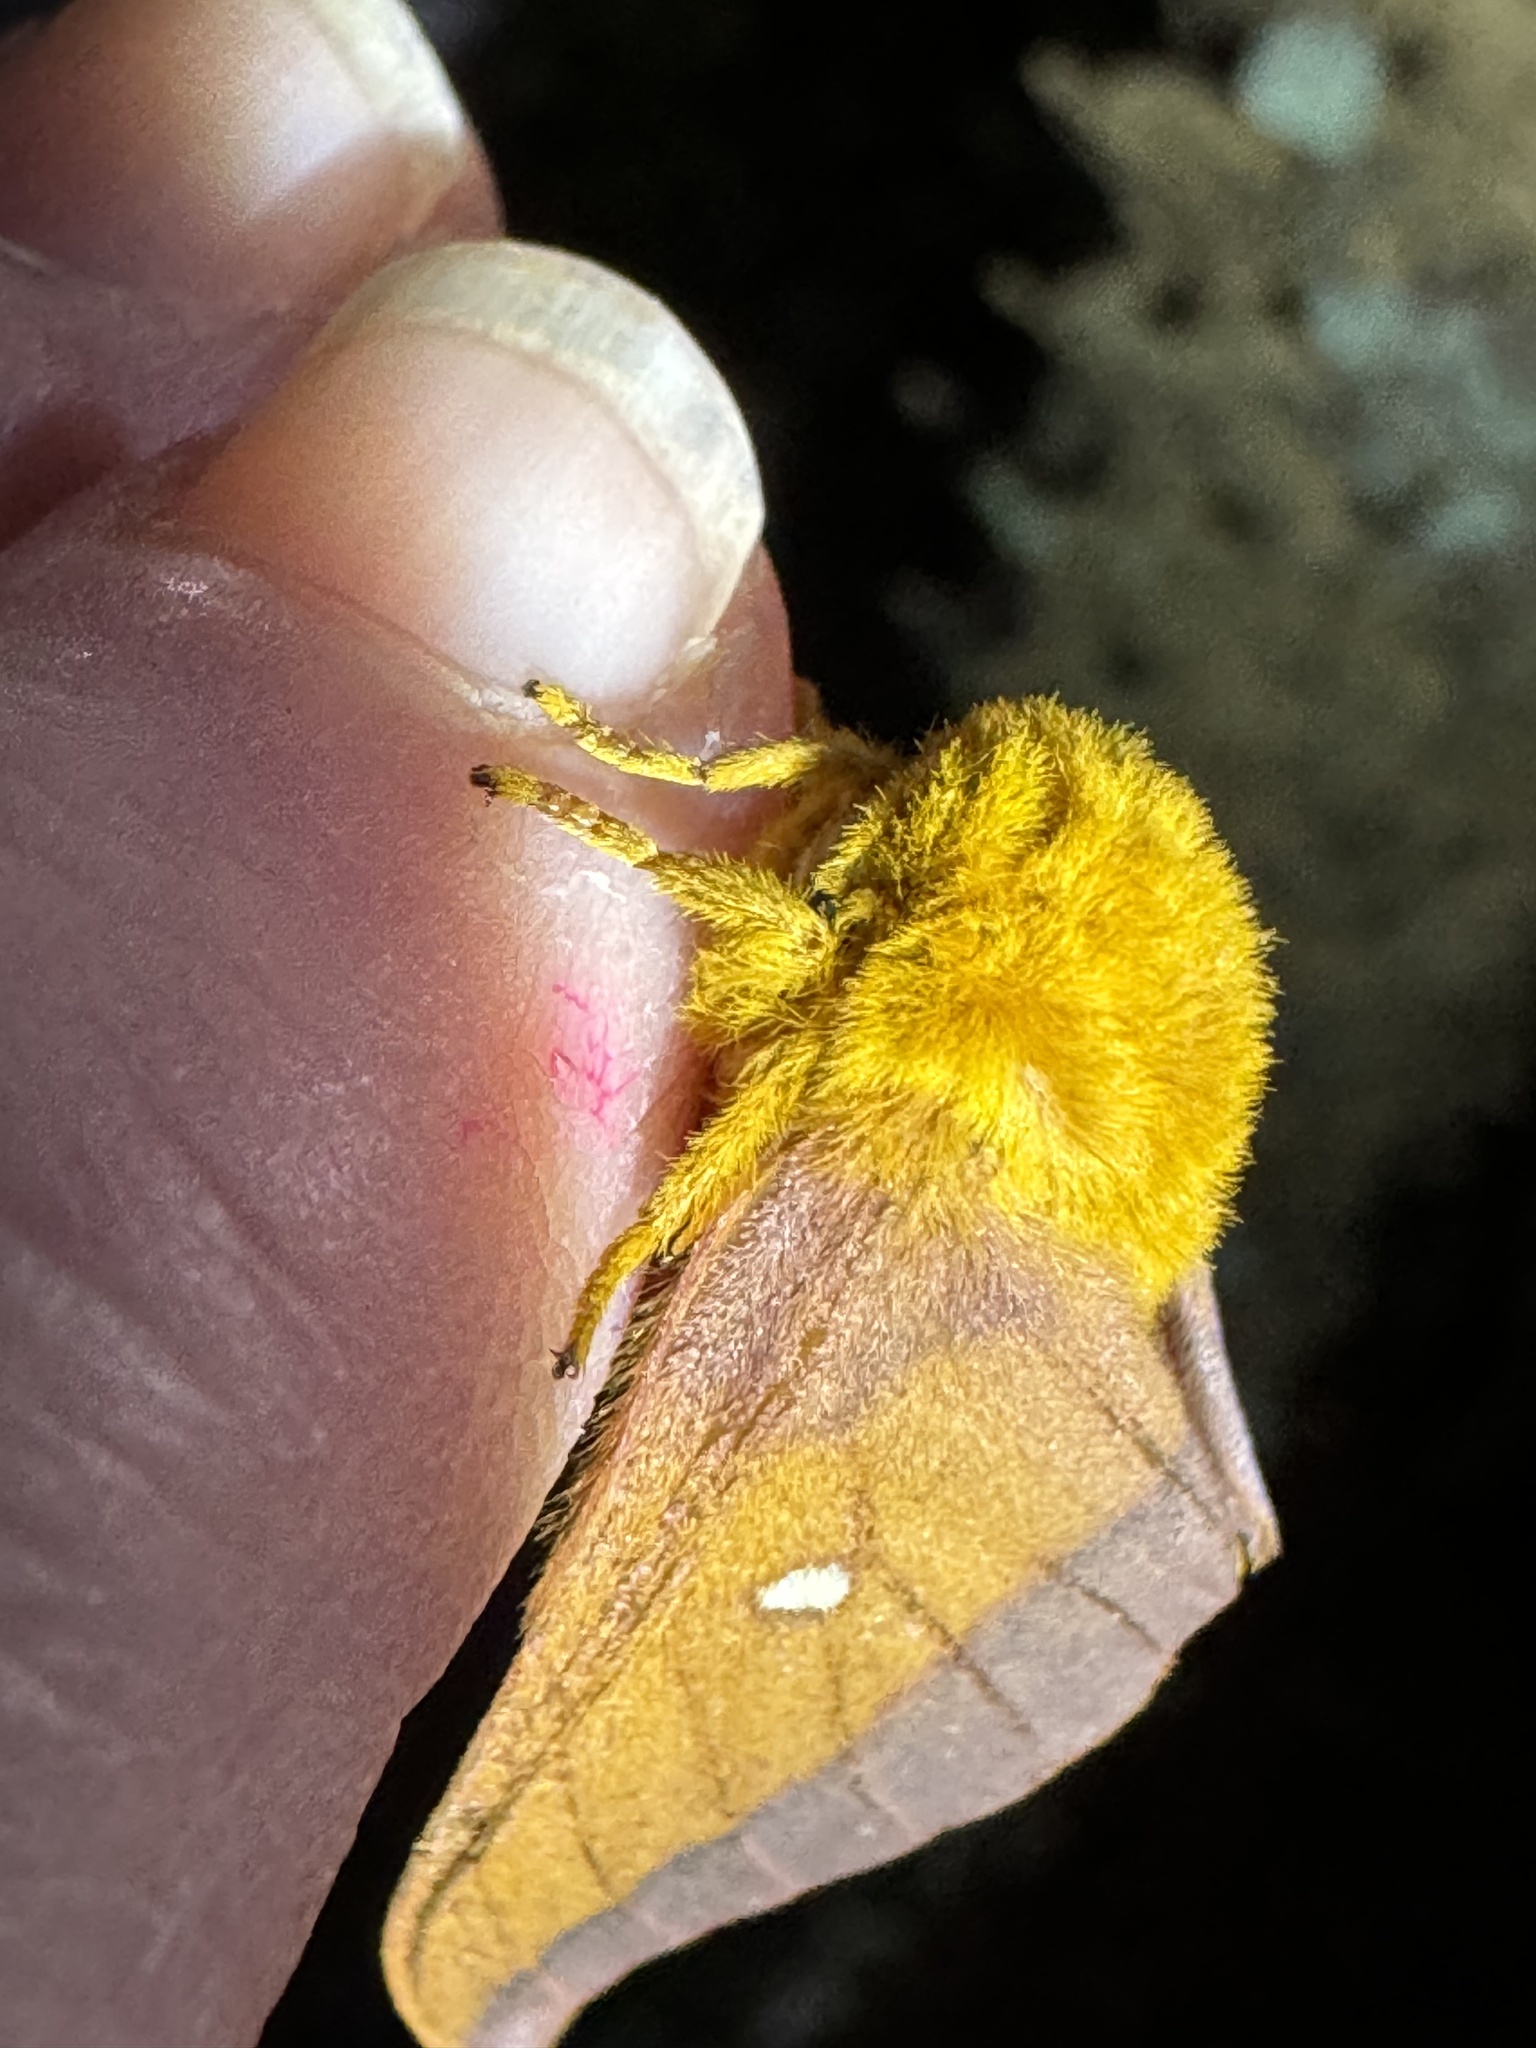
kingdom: Animalia
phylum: Arthropoda
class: Insecta
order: Lepidoptera
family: Saturniidae
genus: Anisota
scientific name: Anisota virginiensis
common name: Pink striped oakworm moth
